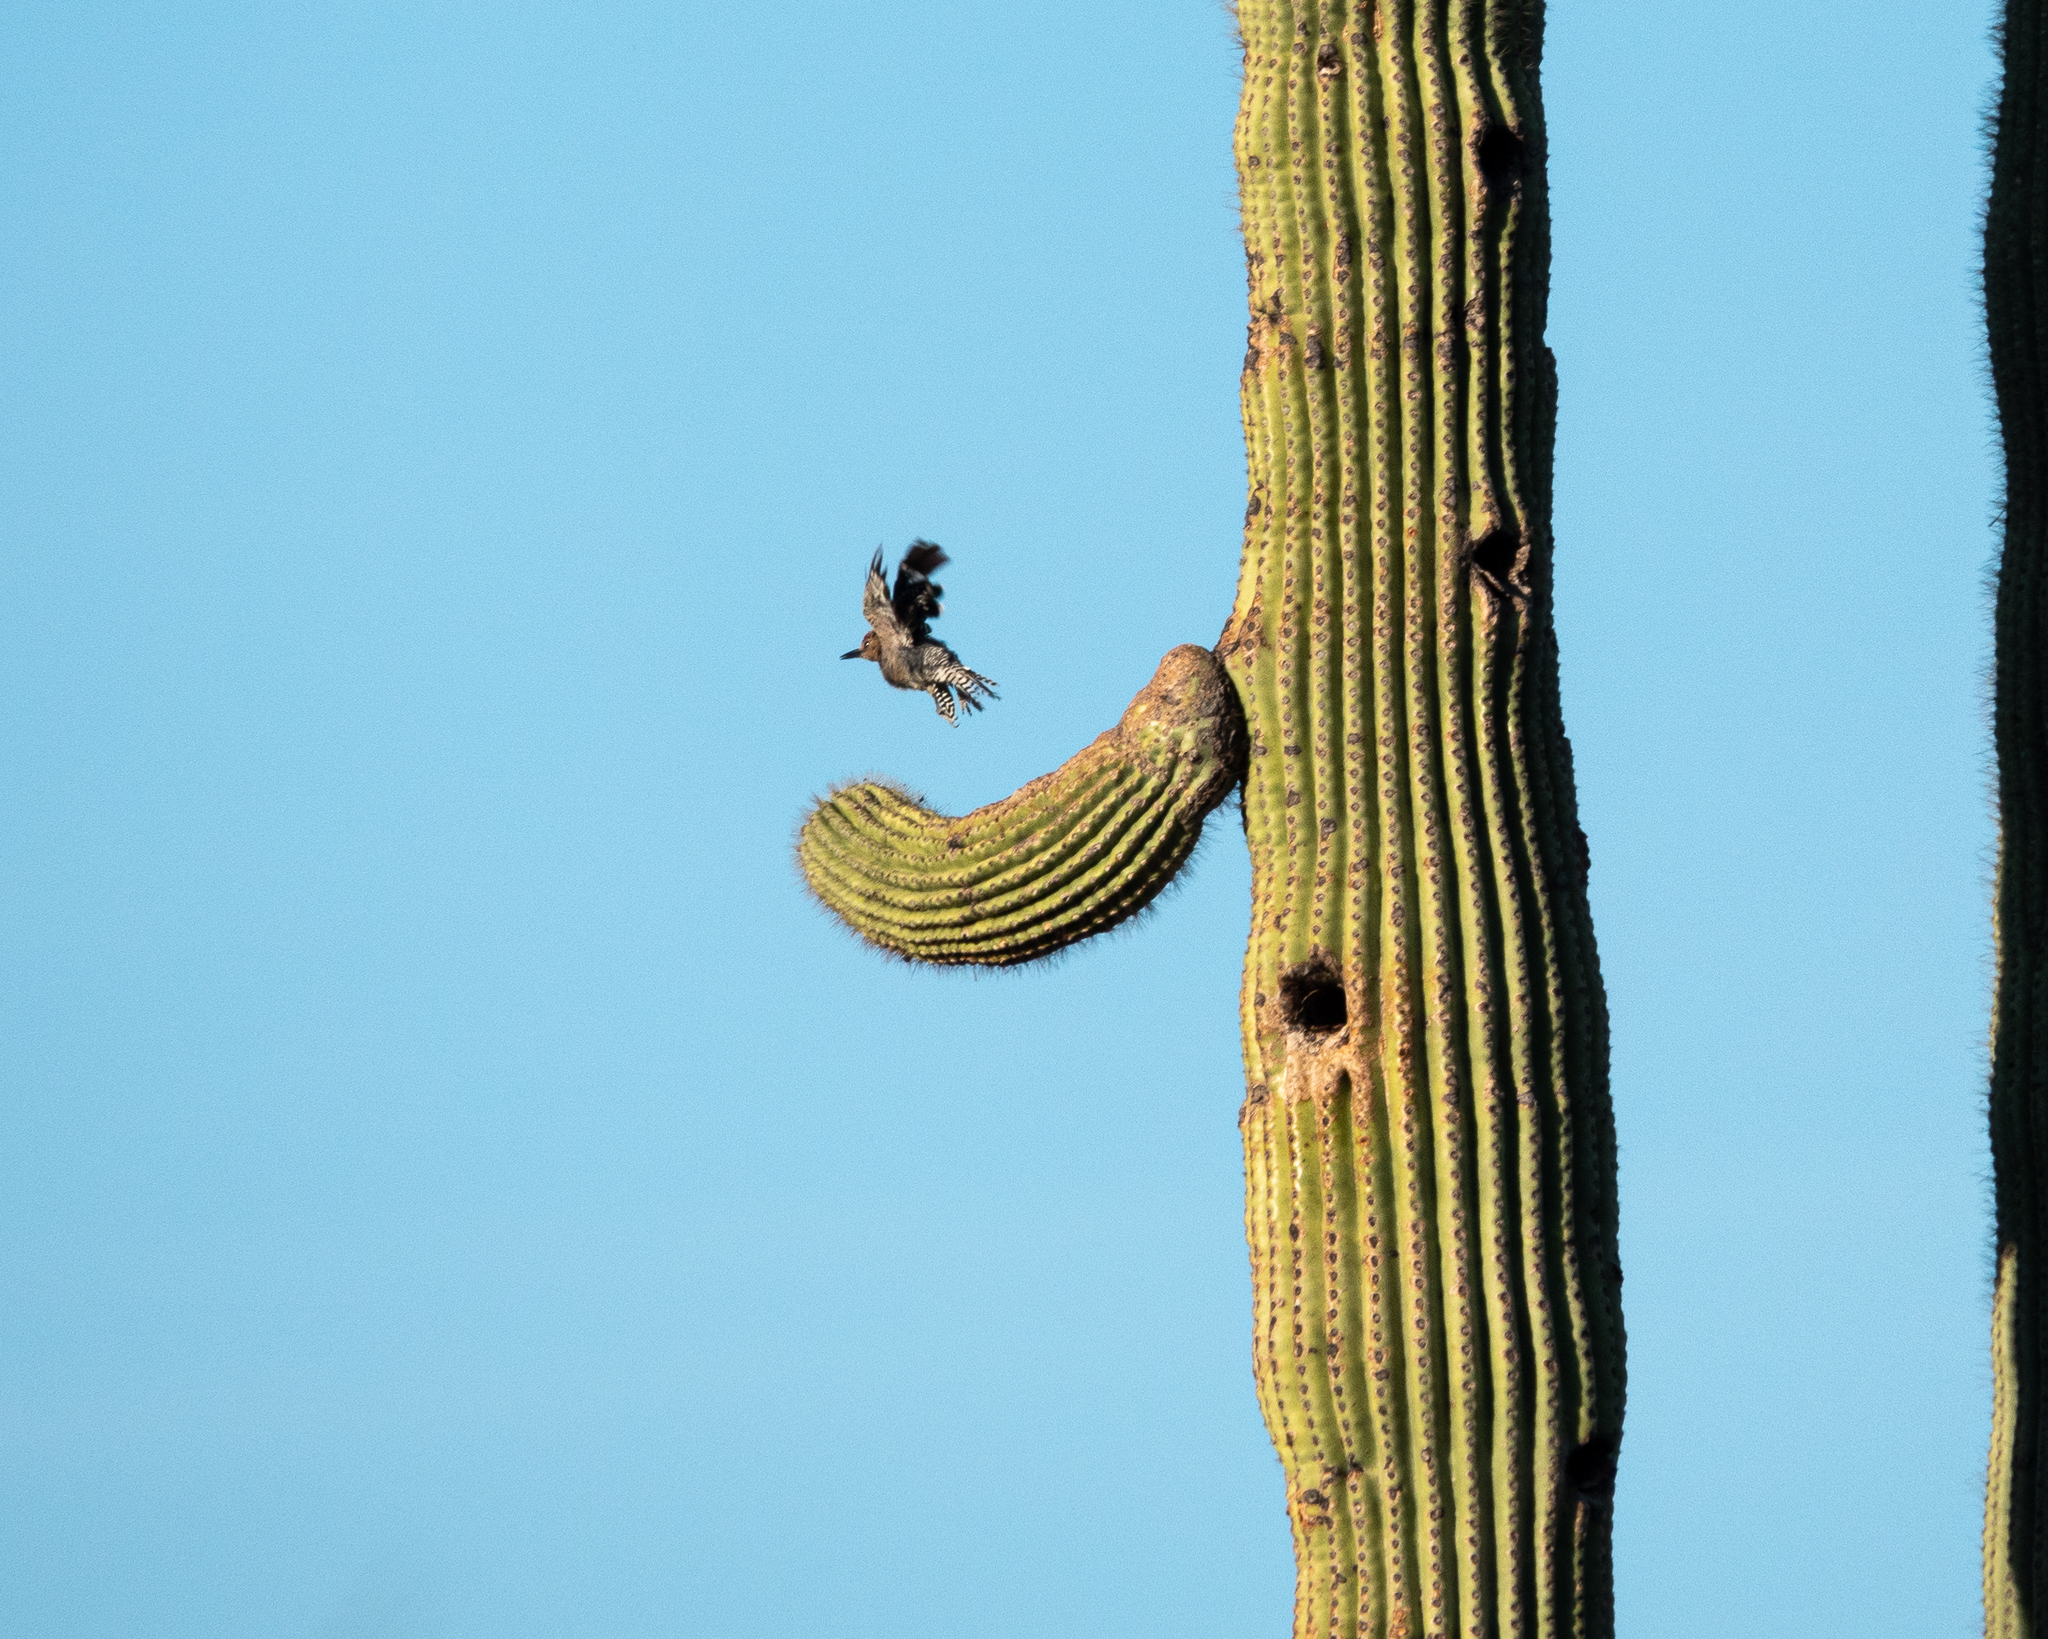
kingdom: Animalia
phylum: Chordata
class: Aves
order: Piciformes
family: Picidae
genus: Melanerpes
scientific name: Melanerpes uropygialis
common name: Gila woodpecker
